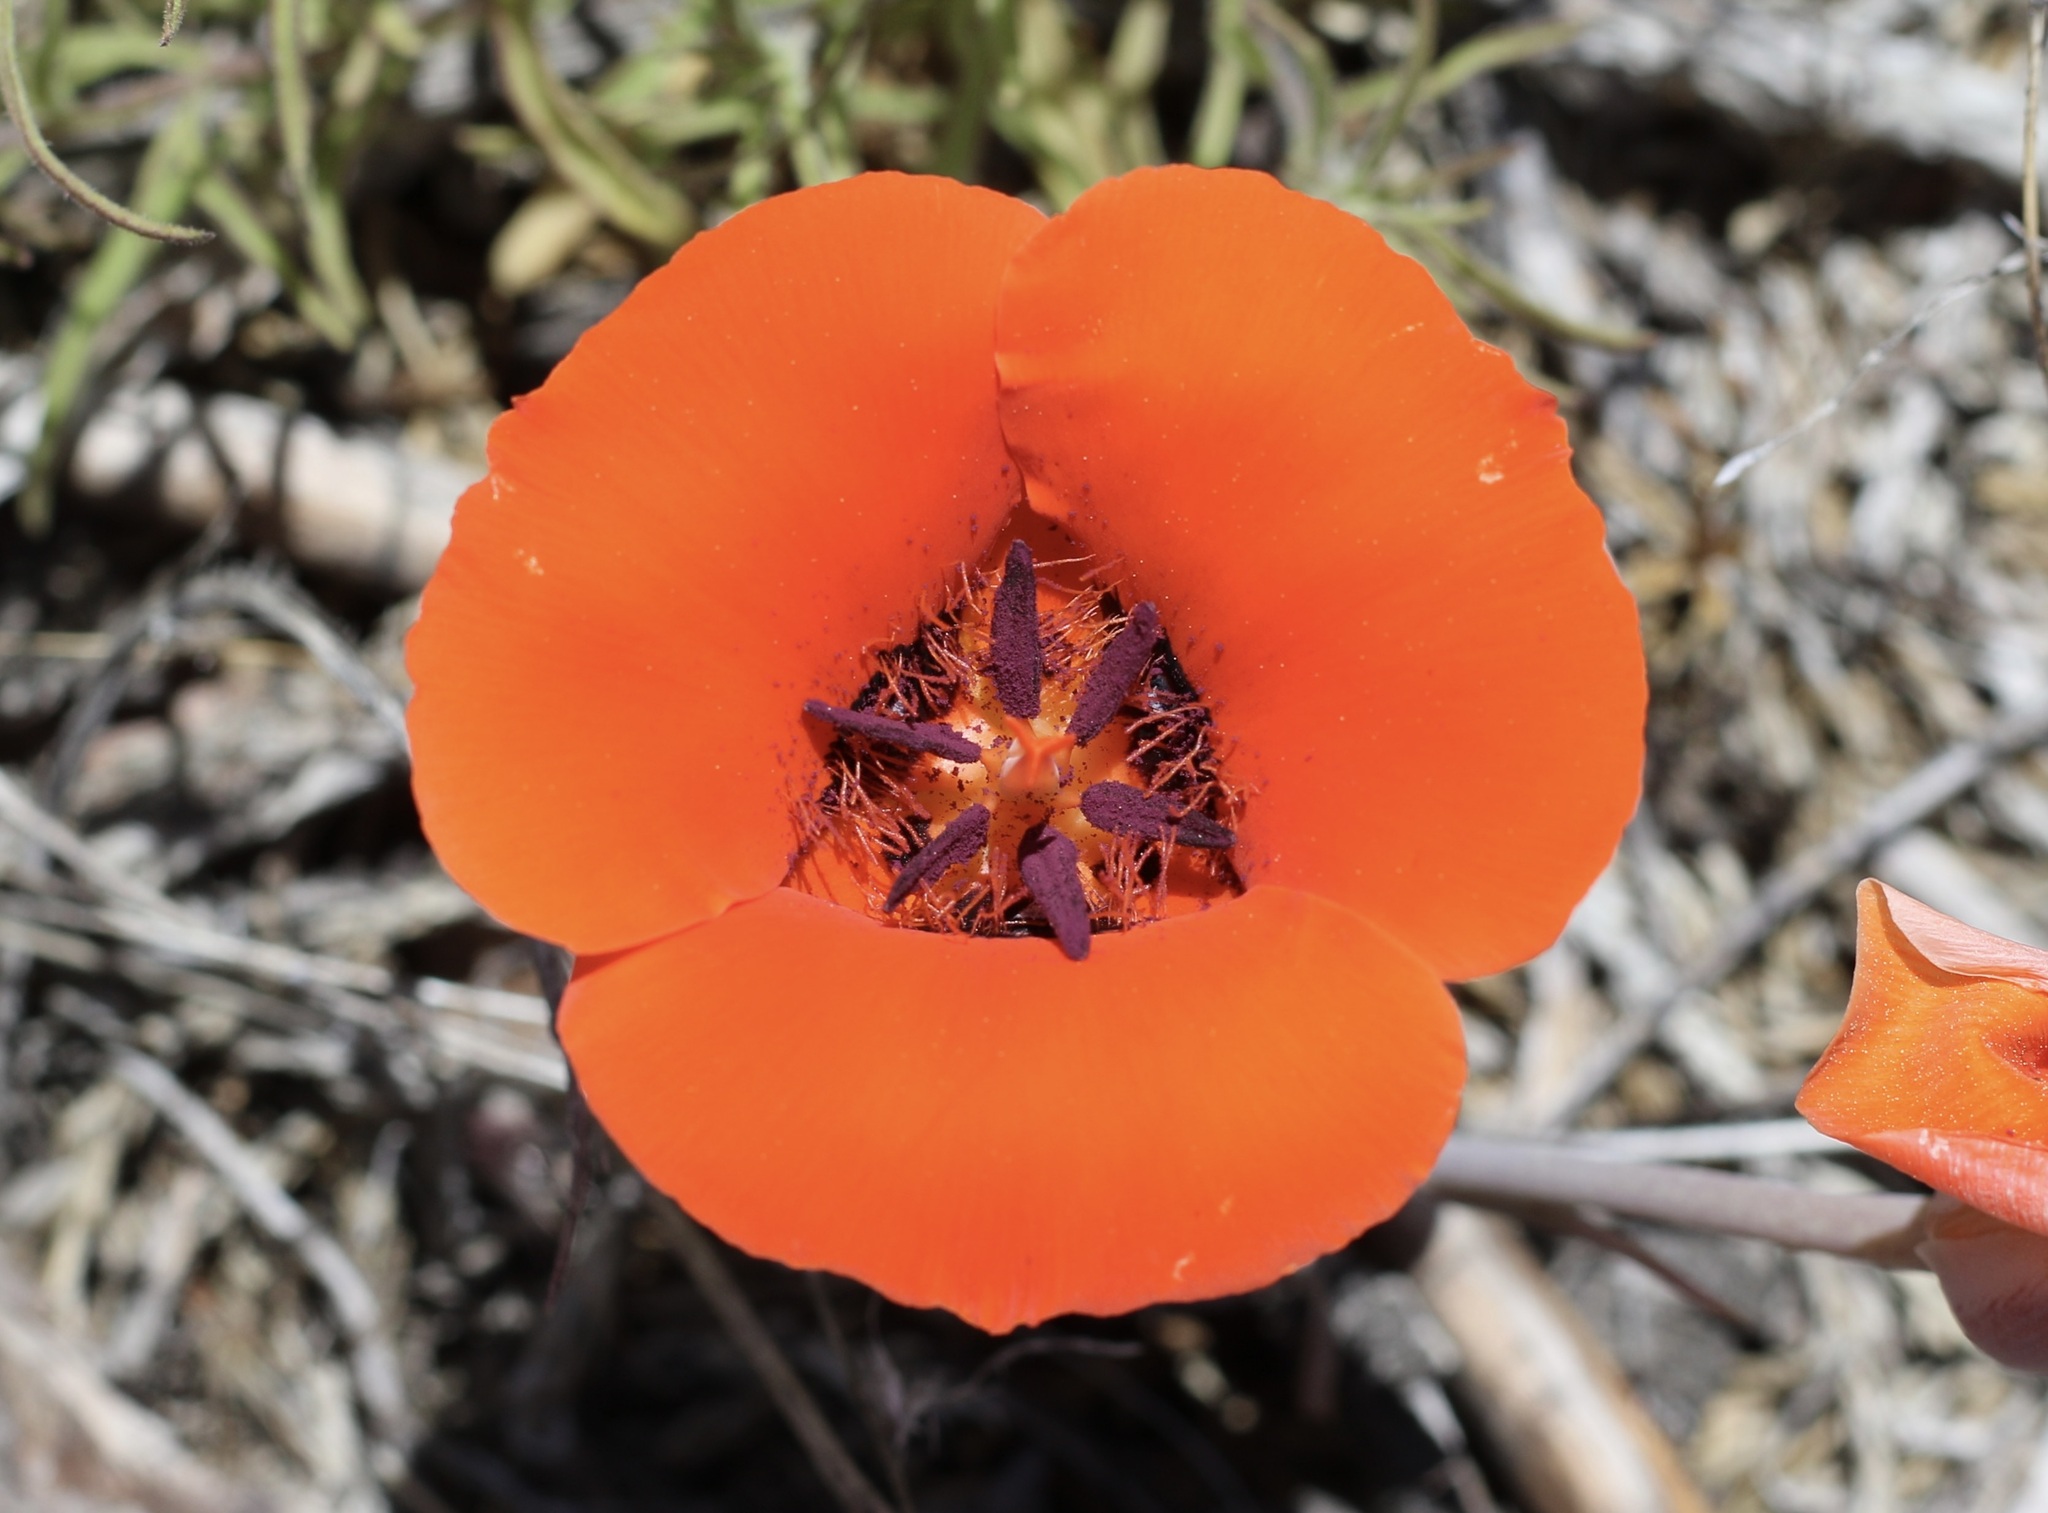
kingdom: Plantae
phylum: Tracheophyta
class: Liliopsida
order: Liliales
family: Liliaceae
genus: Calochortus
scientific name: Calochortus kennedyi
